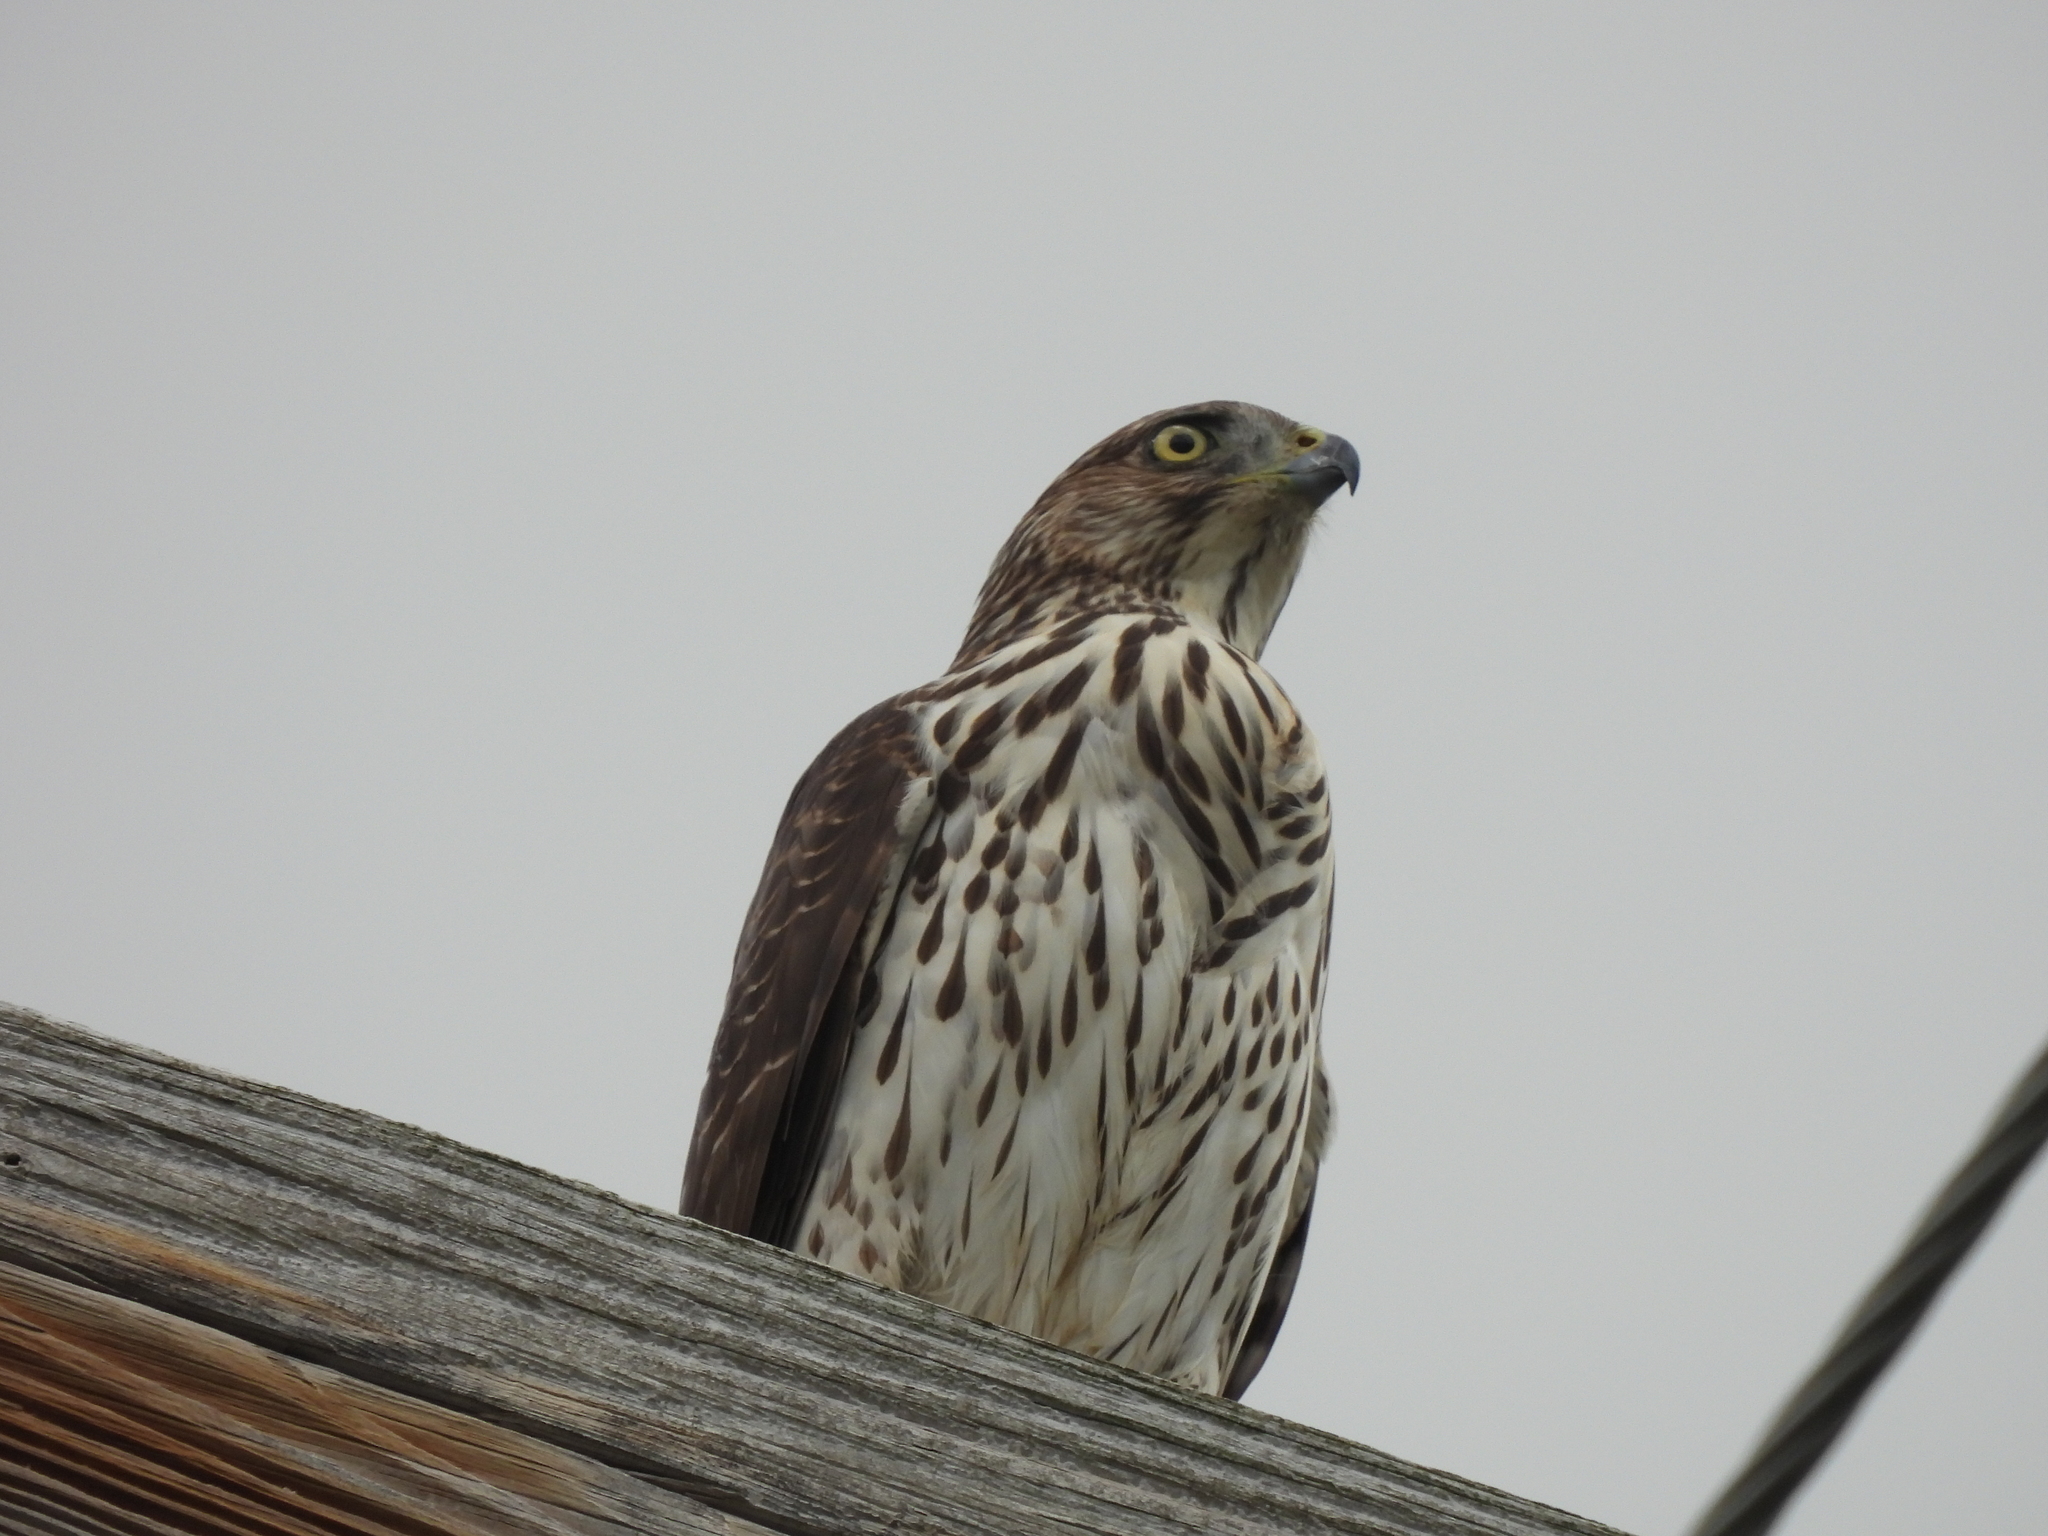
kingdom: Animalia
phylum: Chordata
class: Aves
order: Accipitriformes
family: Accipitridae
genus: Accipiter
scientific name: Accipiter cooperii
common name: Cooper's hawk
